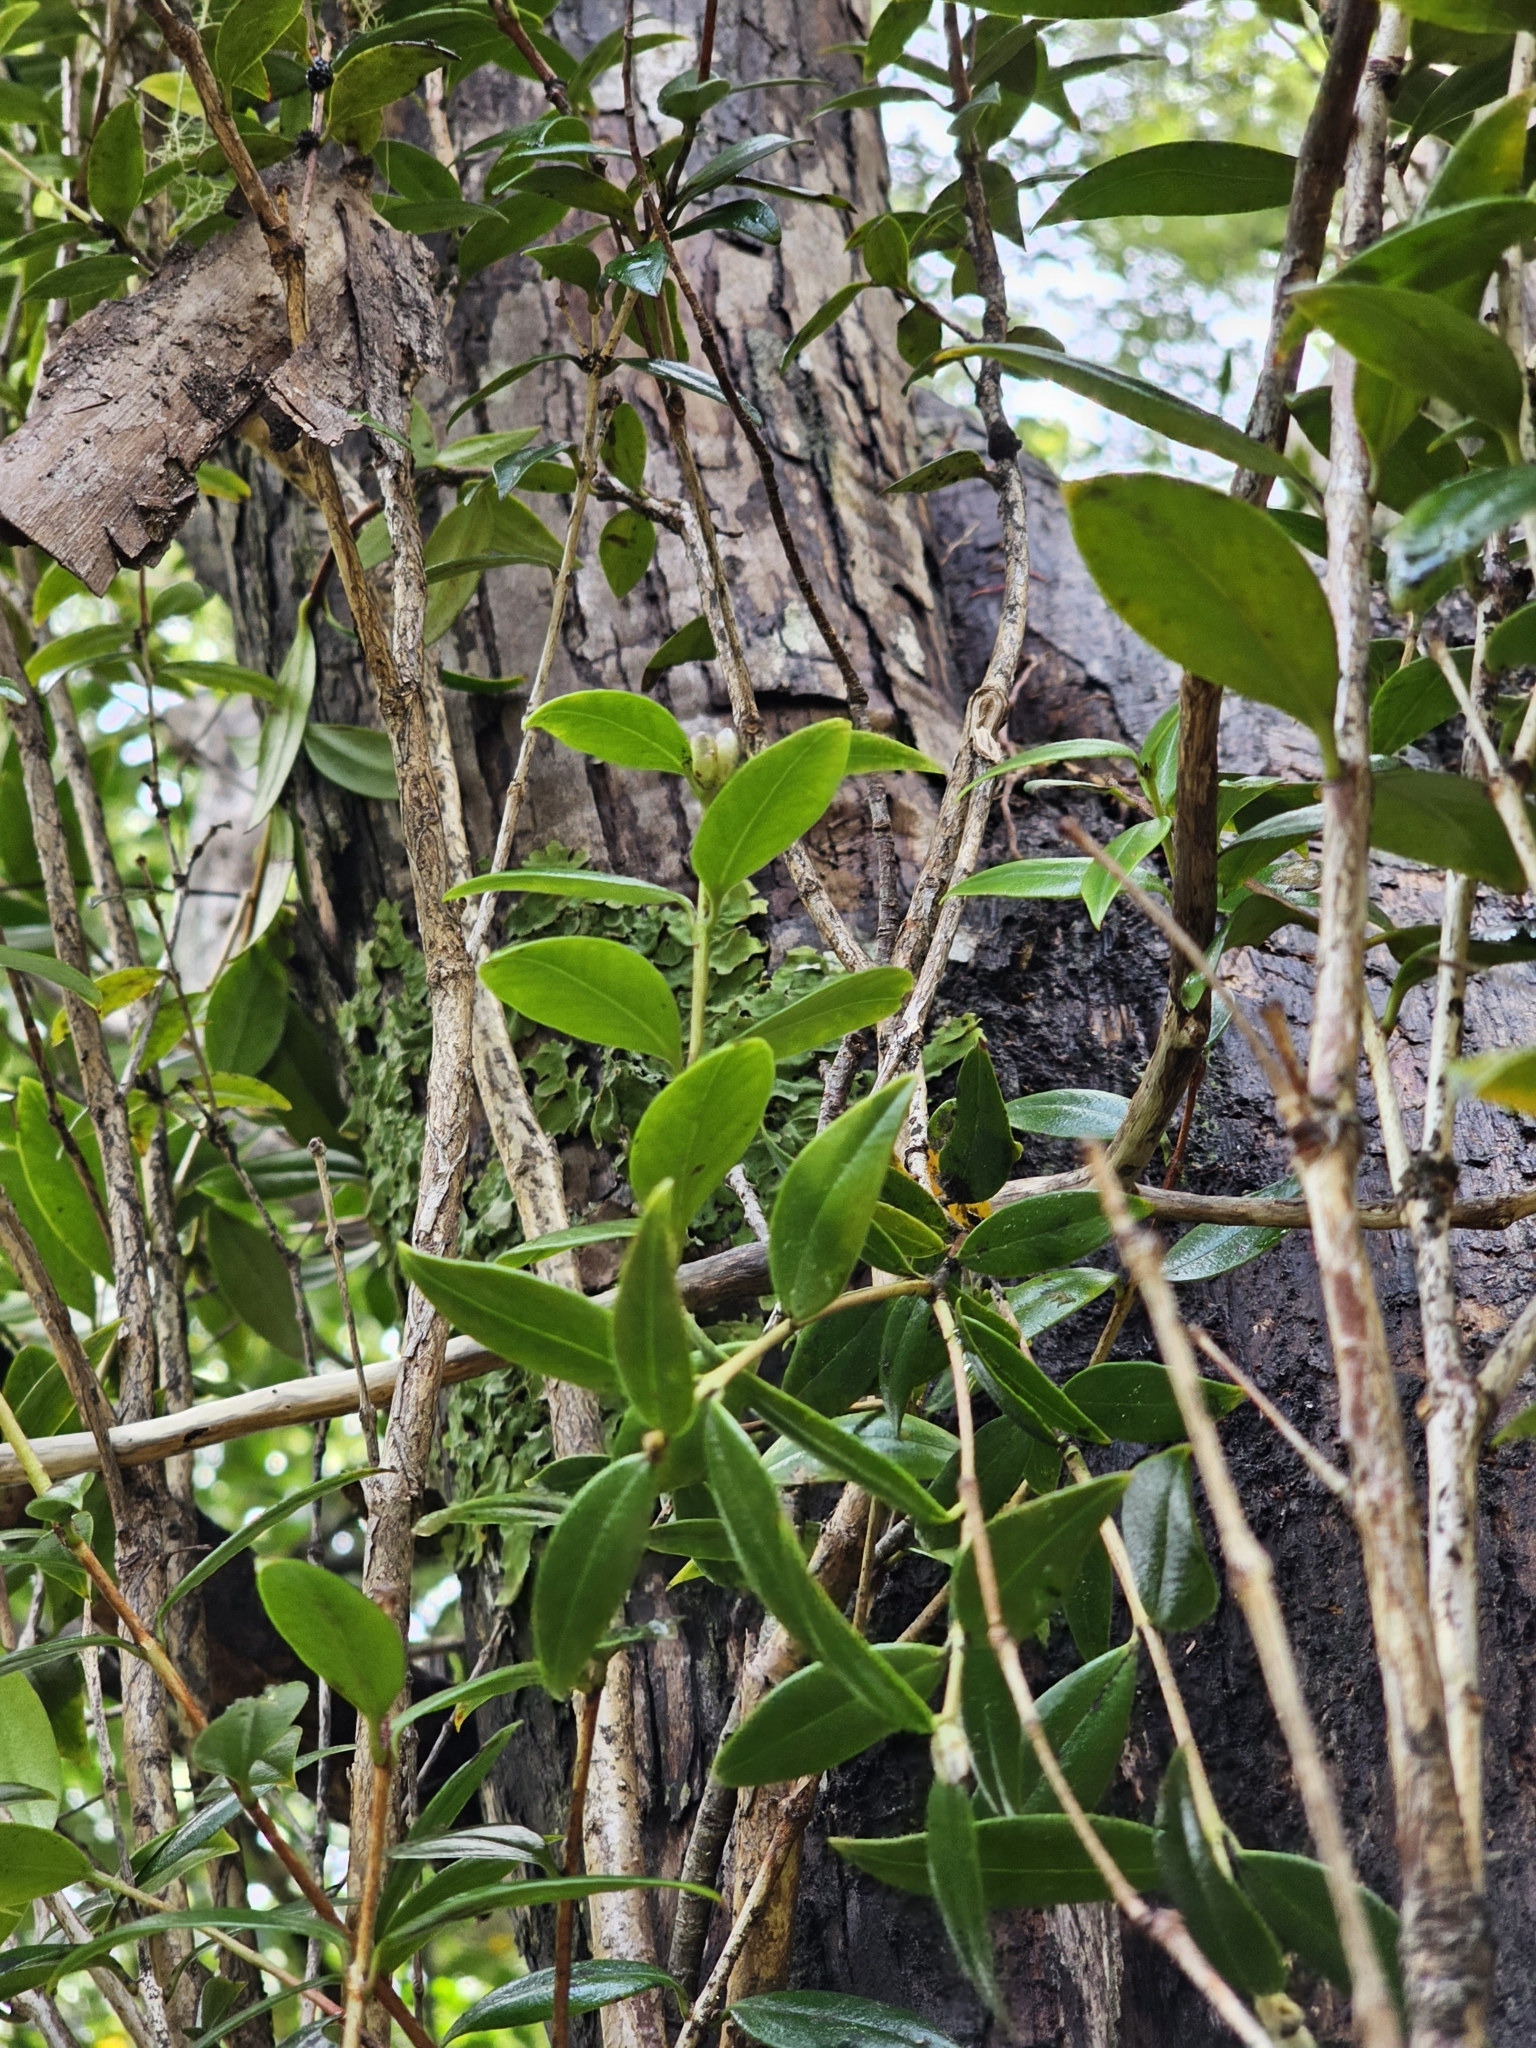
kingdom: Plantae
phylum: Tracheophyta
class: Magnoliopsida
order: Myrtales
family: Myrtaceae
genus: Metrosideros
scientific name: Metrosideros umbellata
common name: Southern rata
